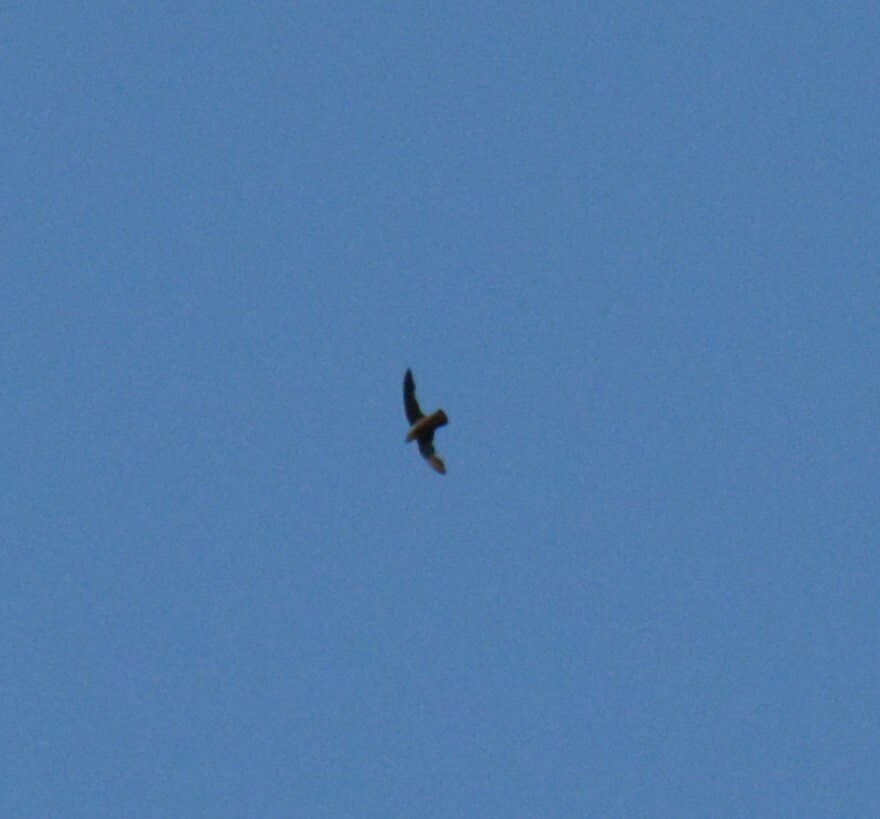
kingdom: Animalia
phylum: Chordata
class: Aves
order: Apodiformes
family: Apodidae
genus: Chaetura
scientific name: Chaetura pelagica
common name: Chimney swift
